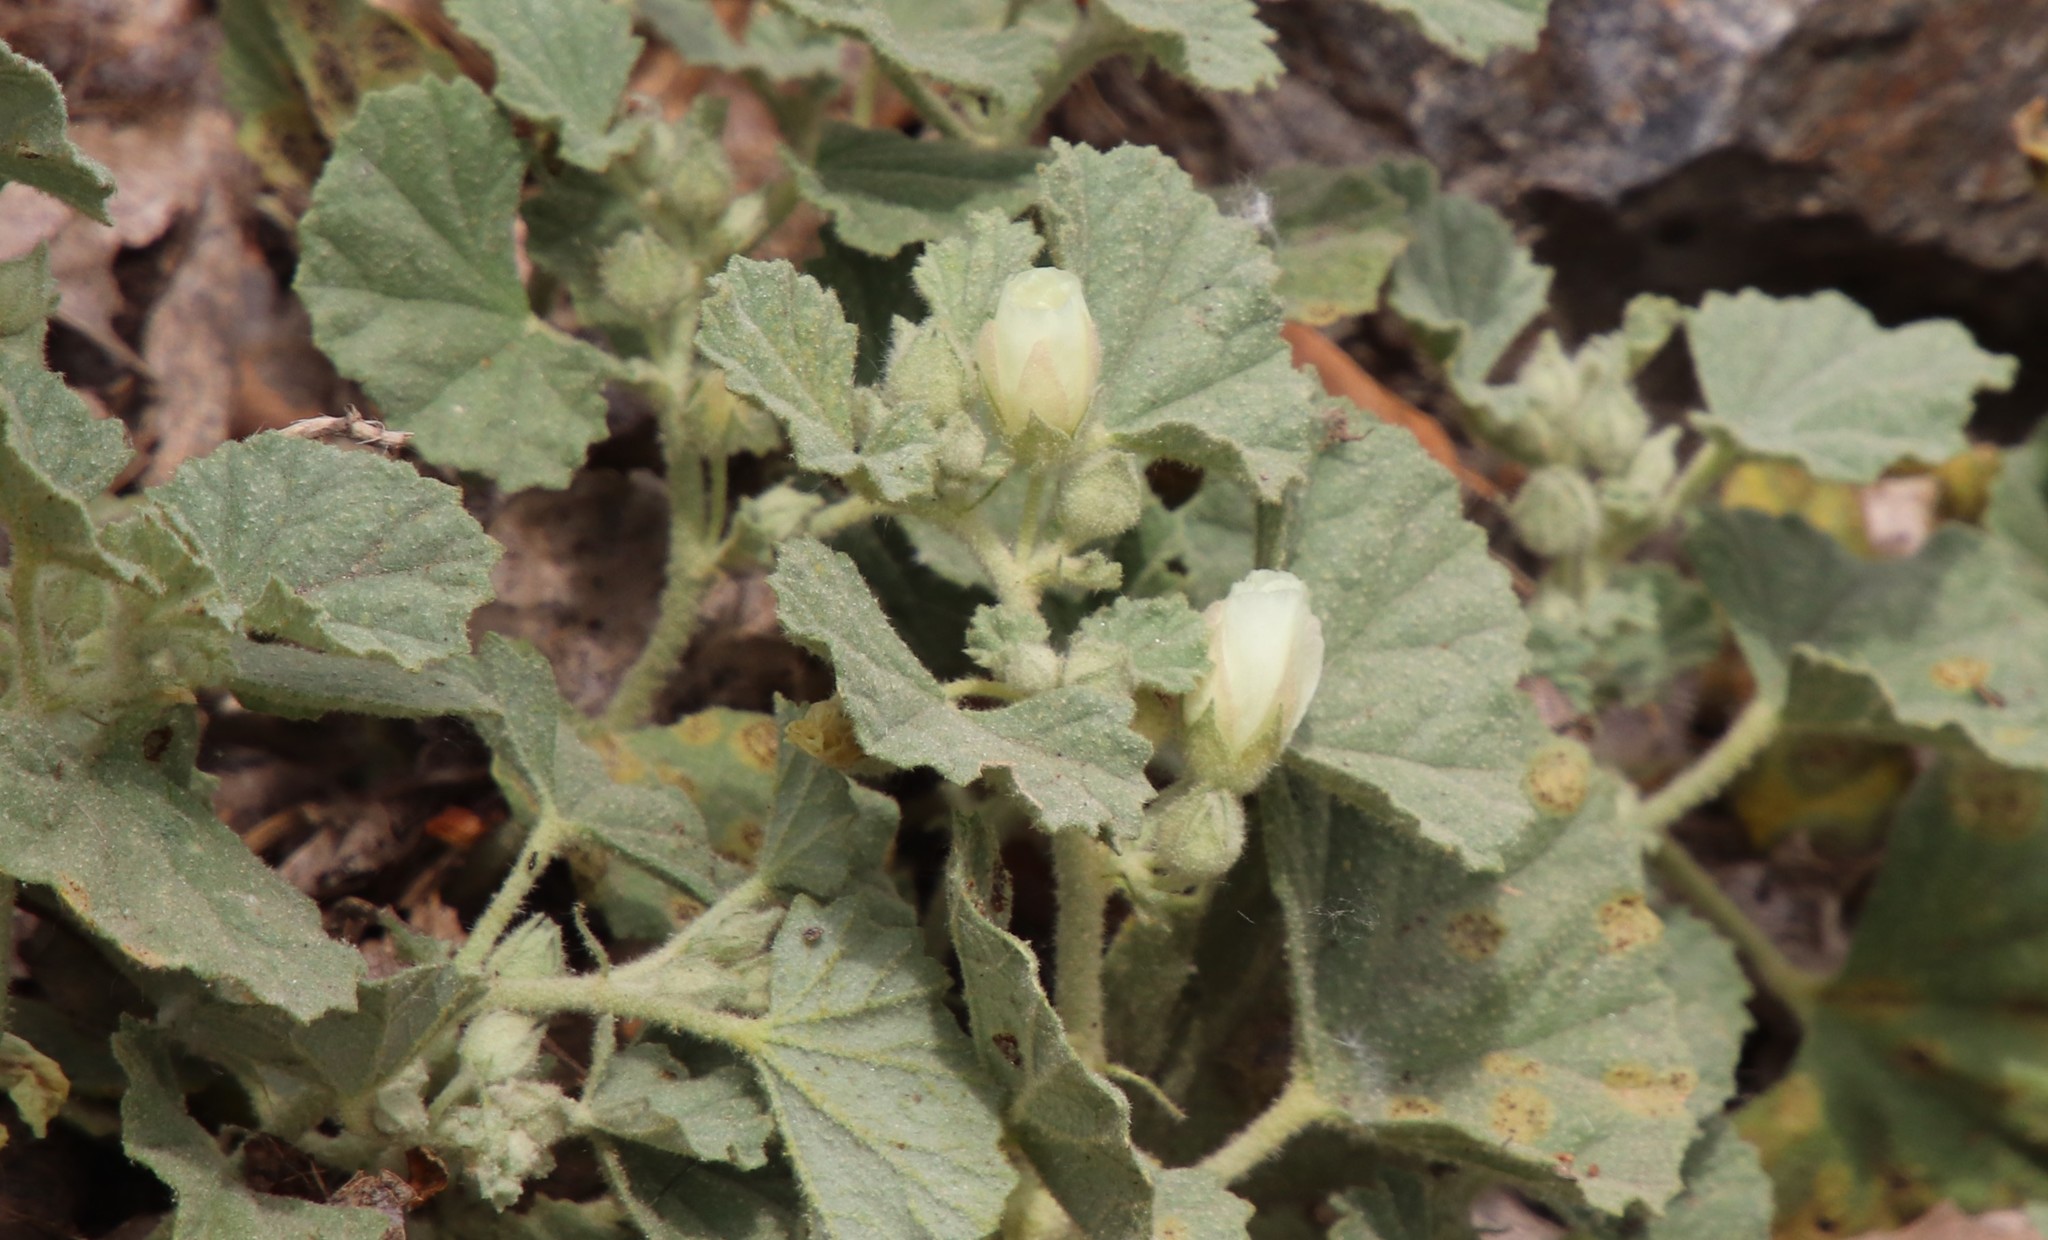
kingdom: Plantae
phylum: Tracheophyta
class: Magnoliopsida
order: Malvales
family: Malvaceae
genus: Malvella
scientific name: Malvella leprosa
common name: Alkali-mallow
